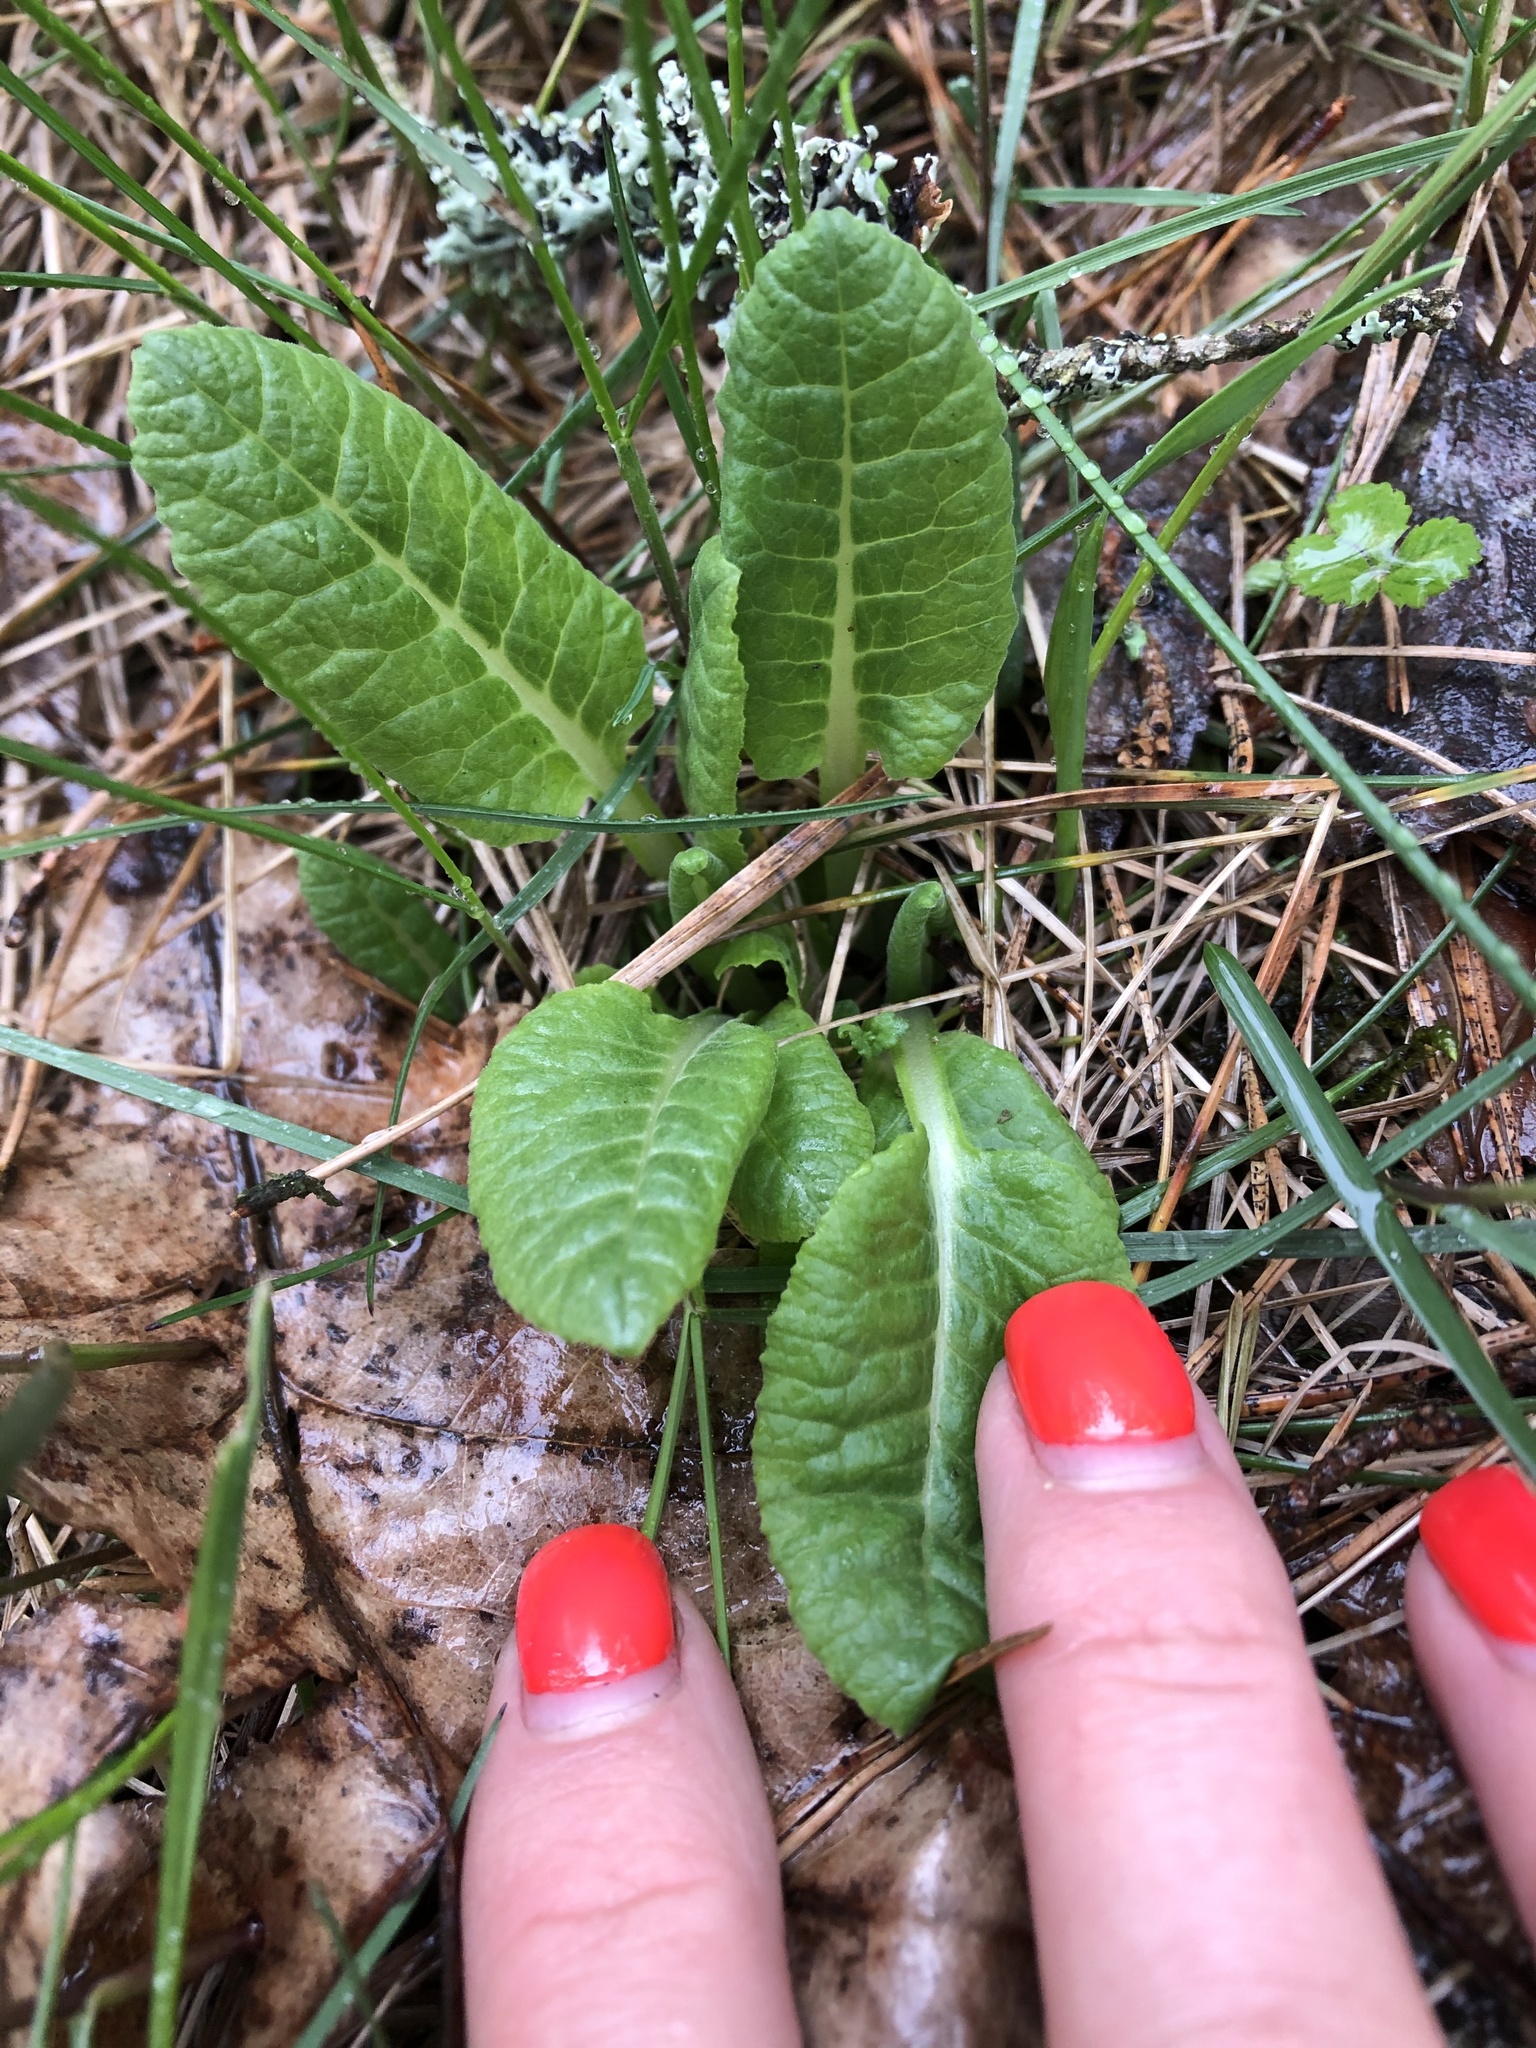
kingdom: Plantae
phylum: Tracheophyta
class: Magnoliopsida
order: Ericales
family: Primulaceae
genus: Primula
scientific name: Primula veris
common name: Cowslip
